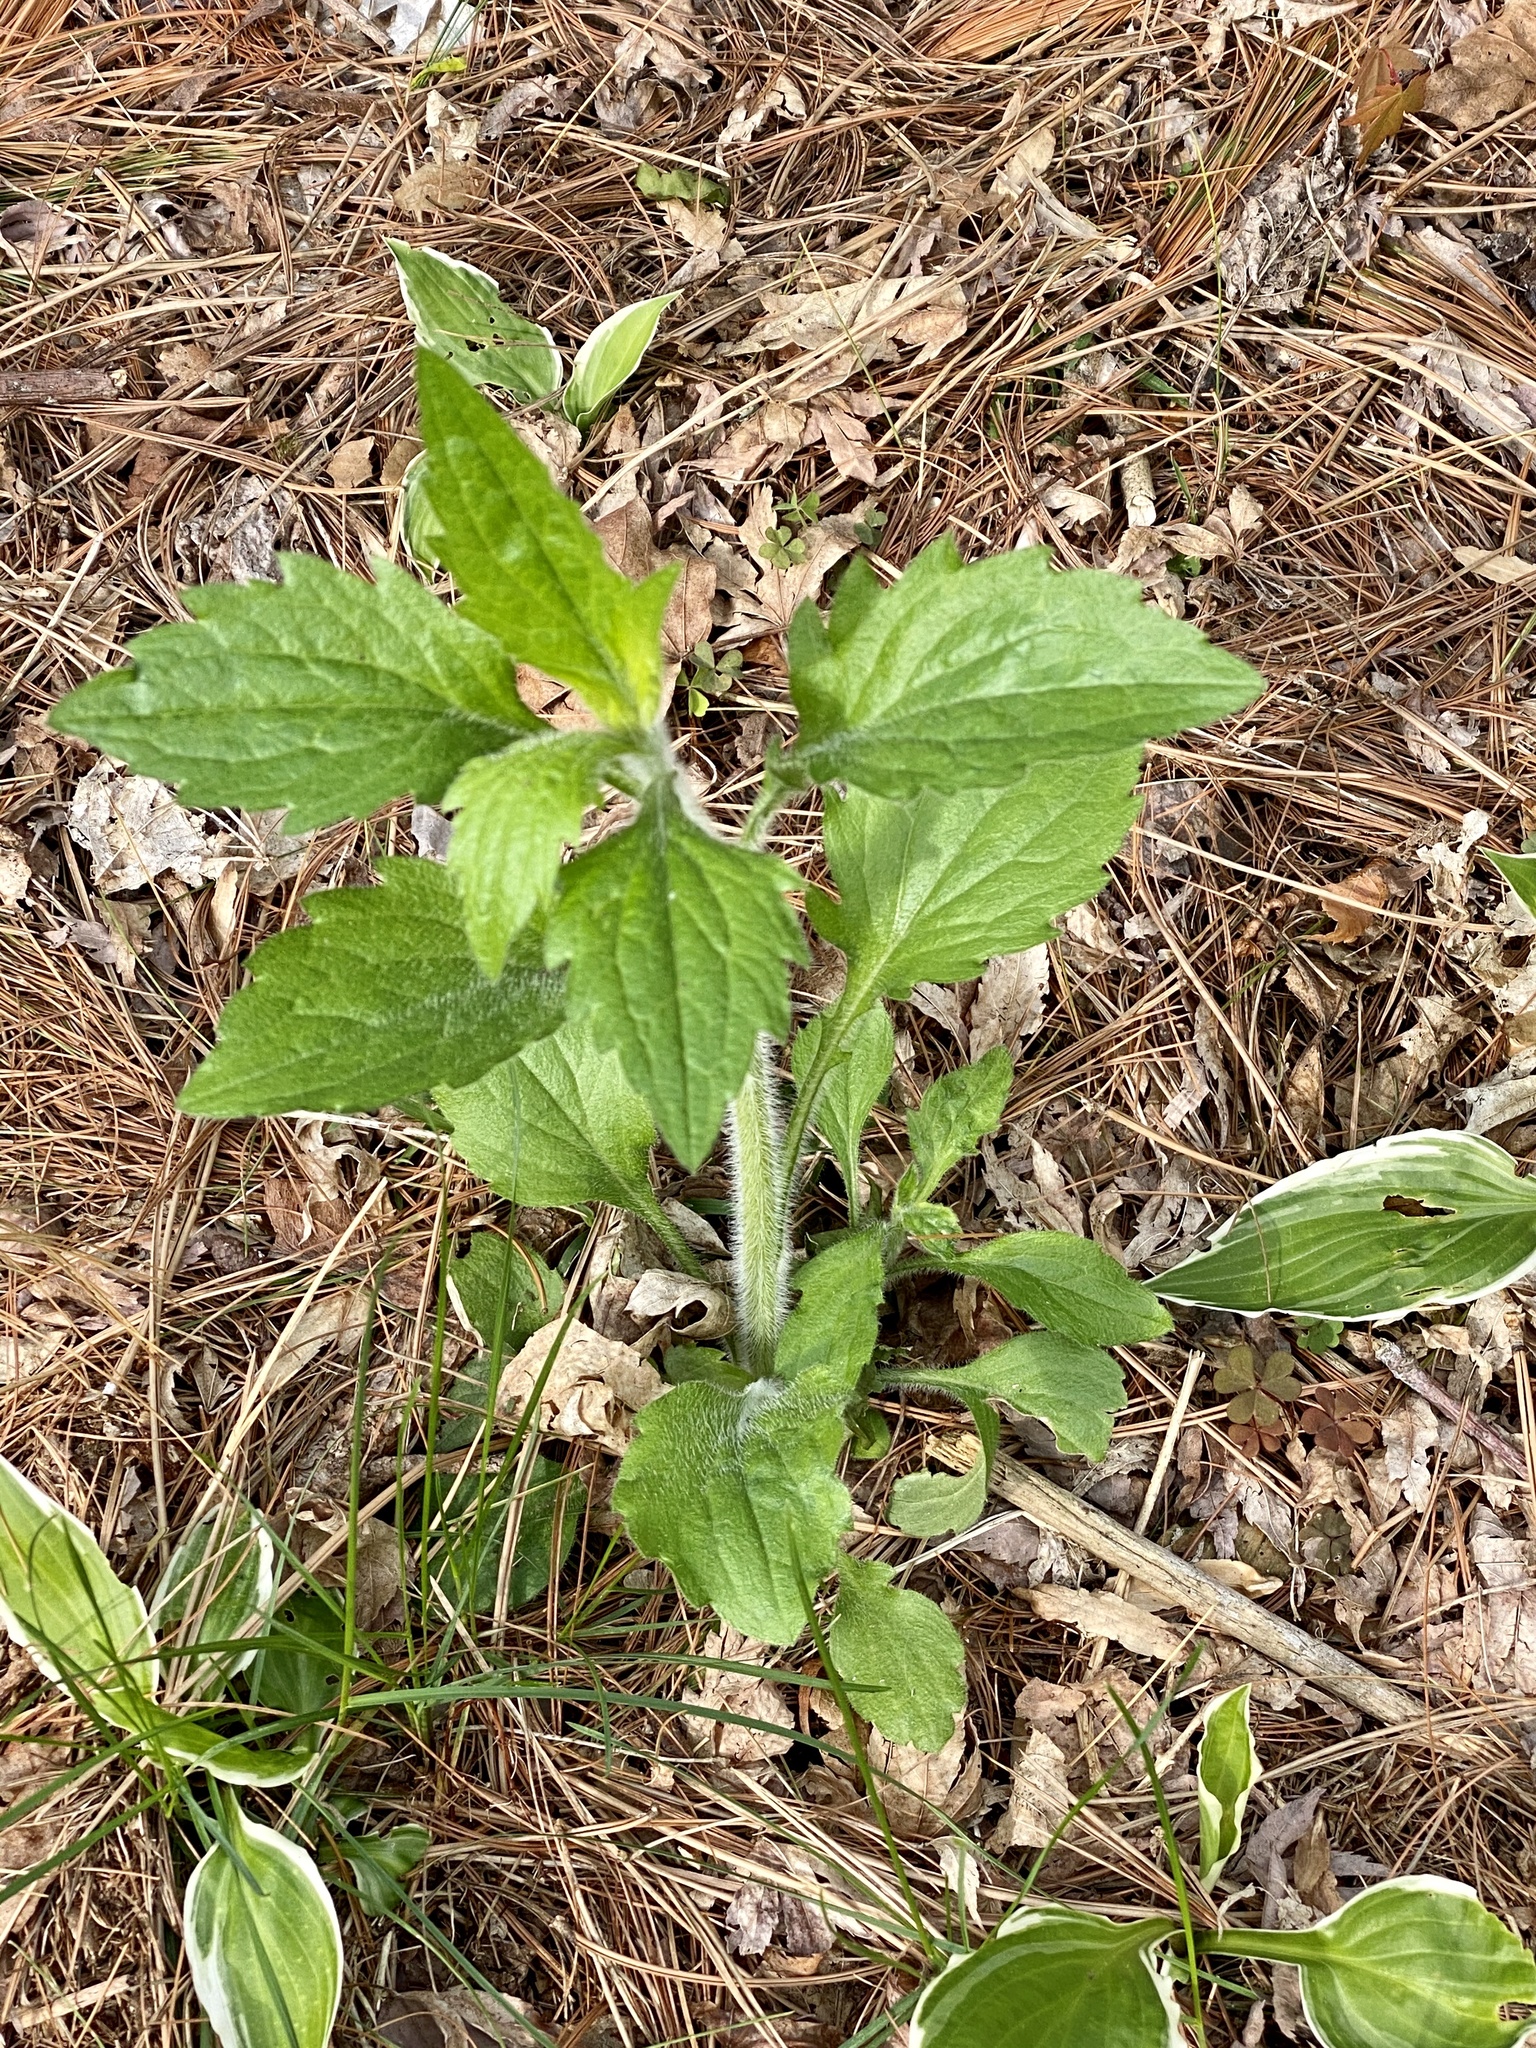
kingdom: Plantae
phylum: Tracheophyta
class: Magnoliopsida
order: Asterales
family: Asteraceae
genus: Erigeron
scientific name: Erigeron annuus
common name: Tall fleabane
